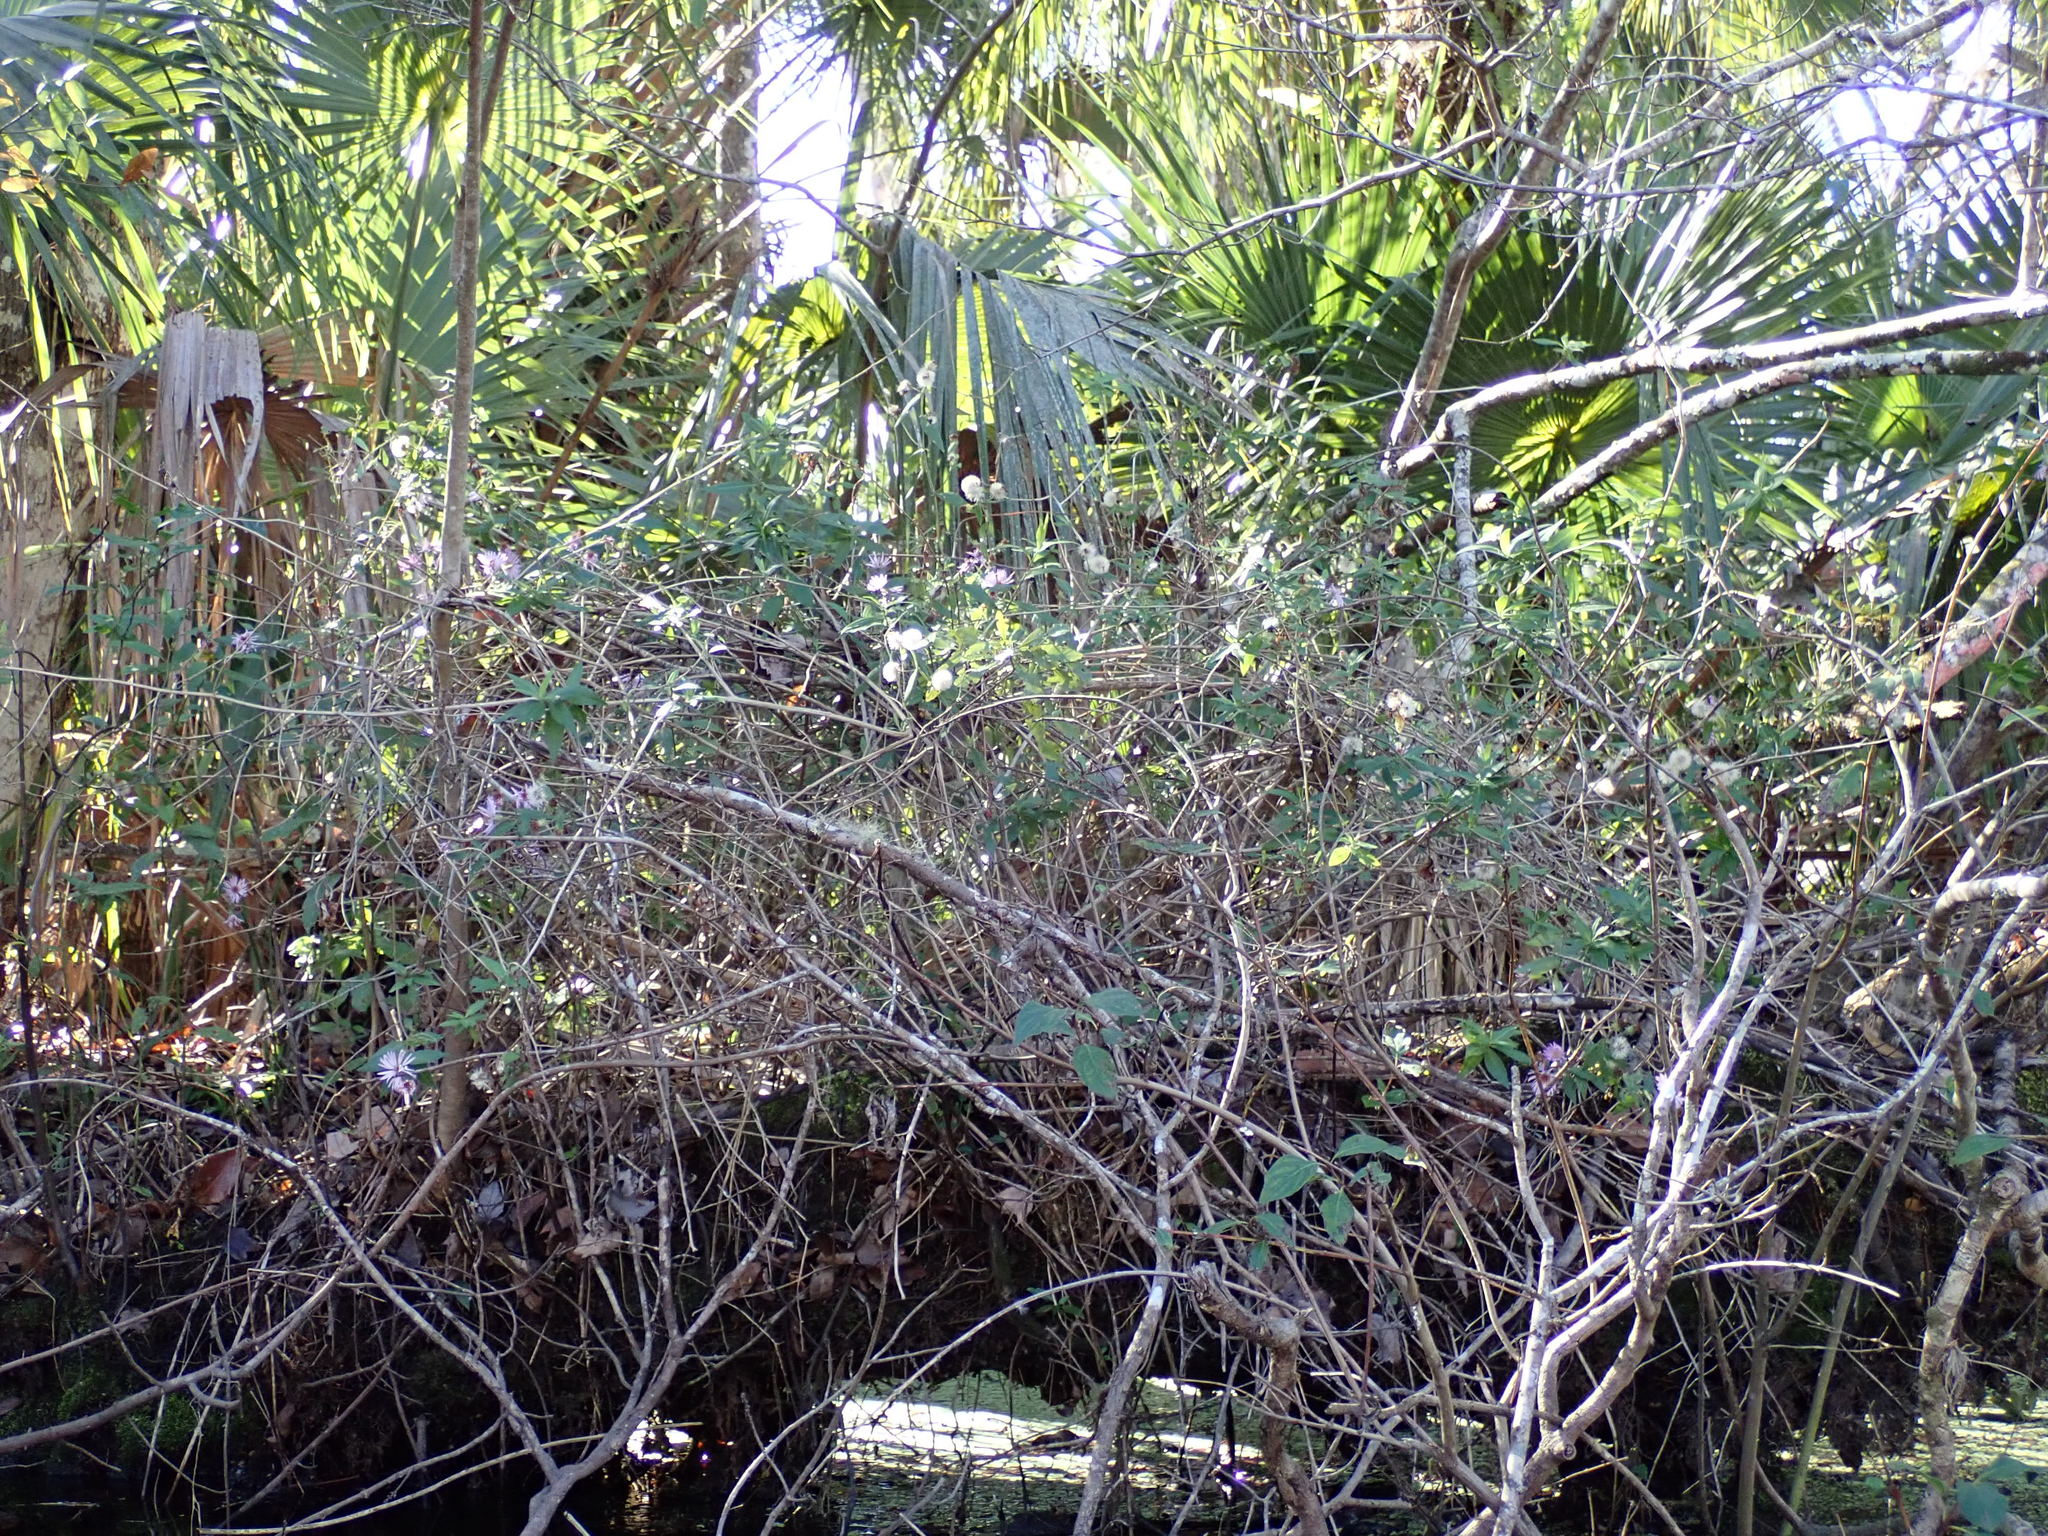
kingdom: Plantae
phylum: Tracheophyta
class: Magnoliopsida
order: Asterales
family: Asteraceae
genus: Ampelaster
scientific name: Ampelaster carolinianus
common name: Climbing aster
